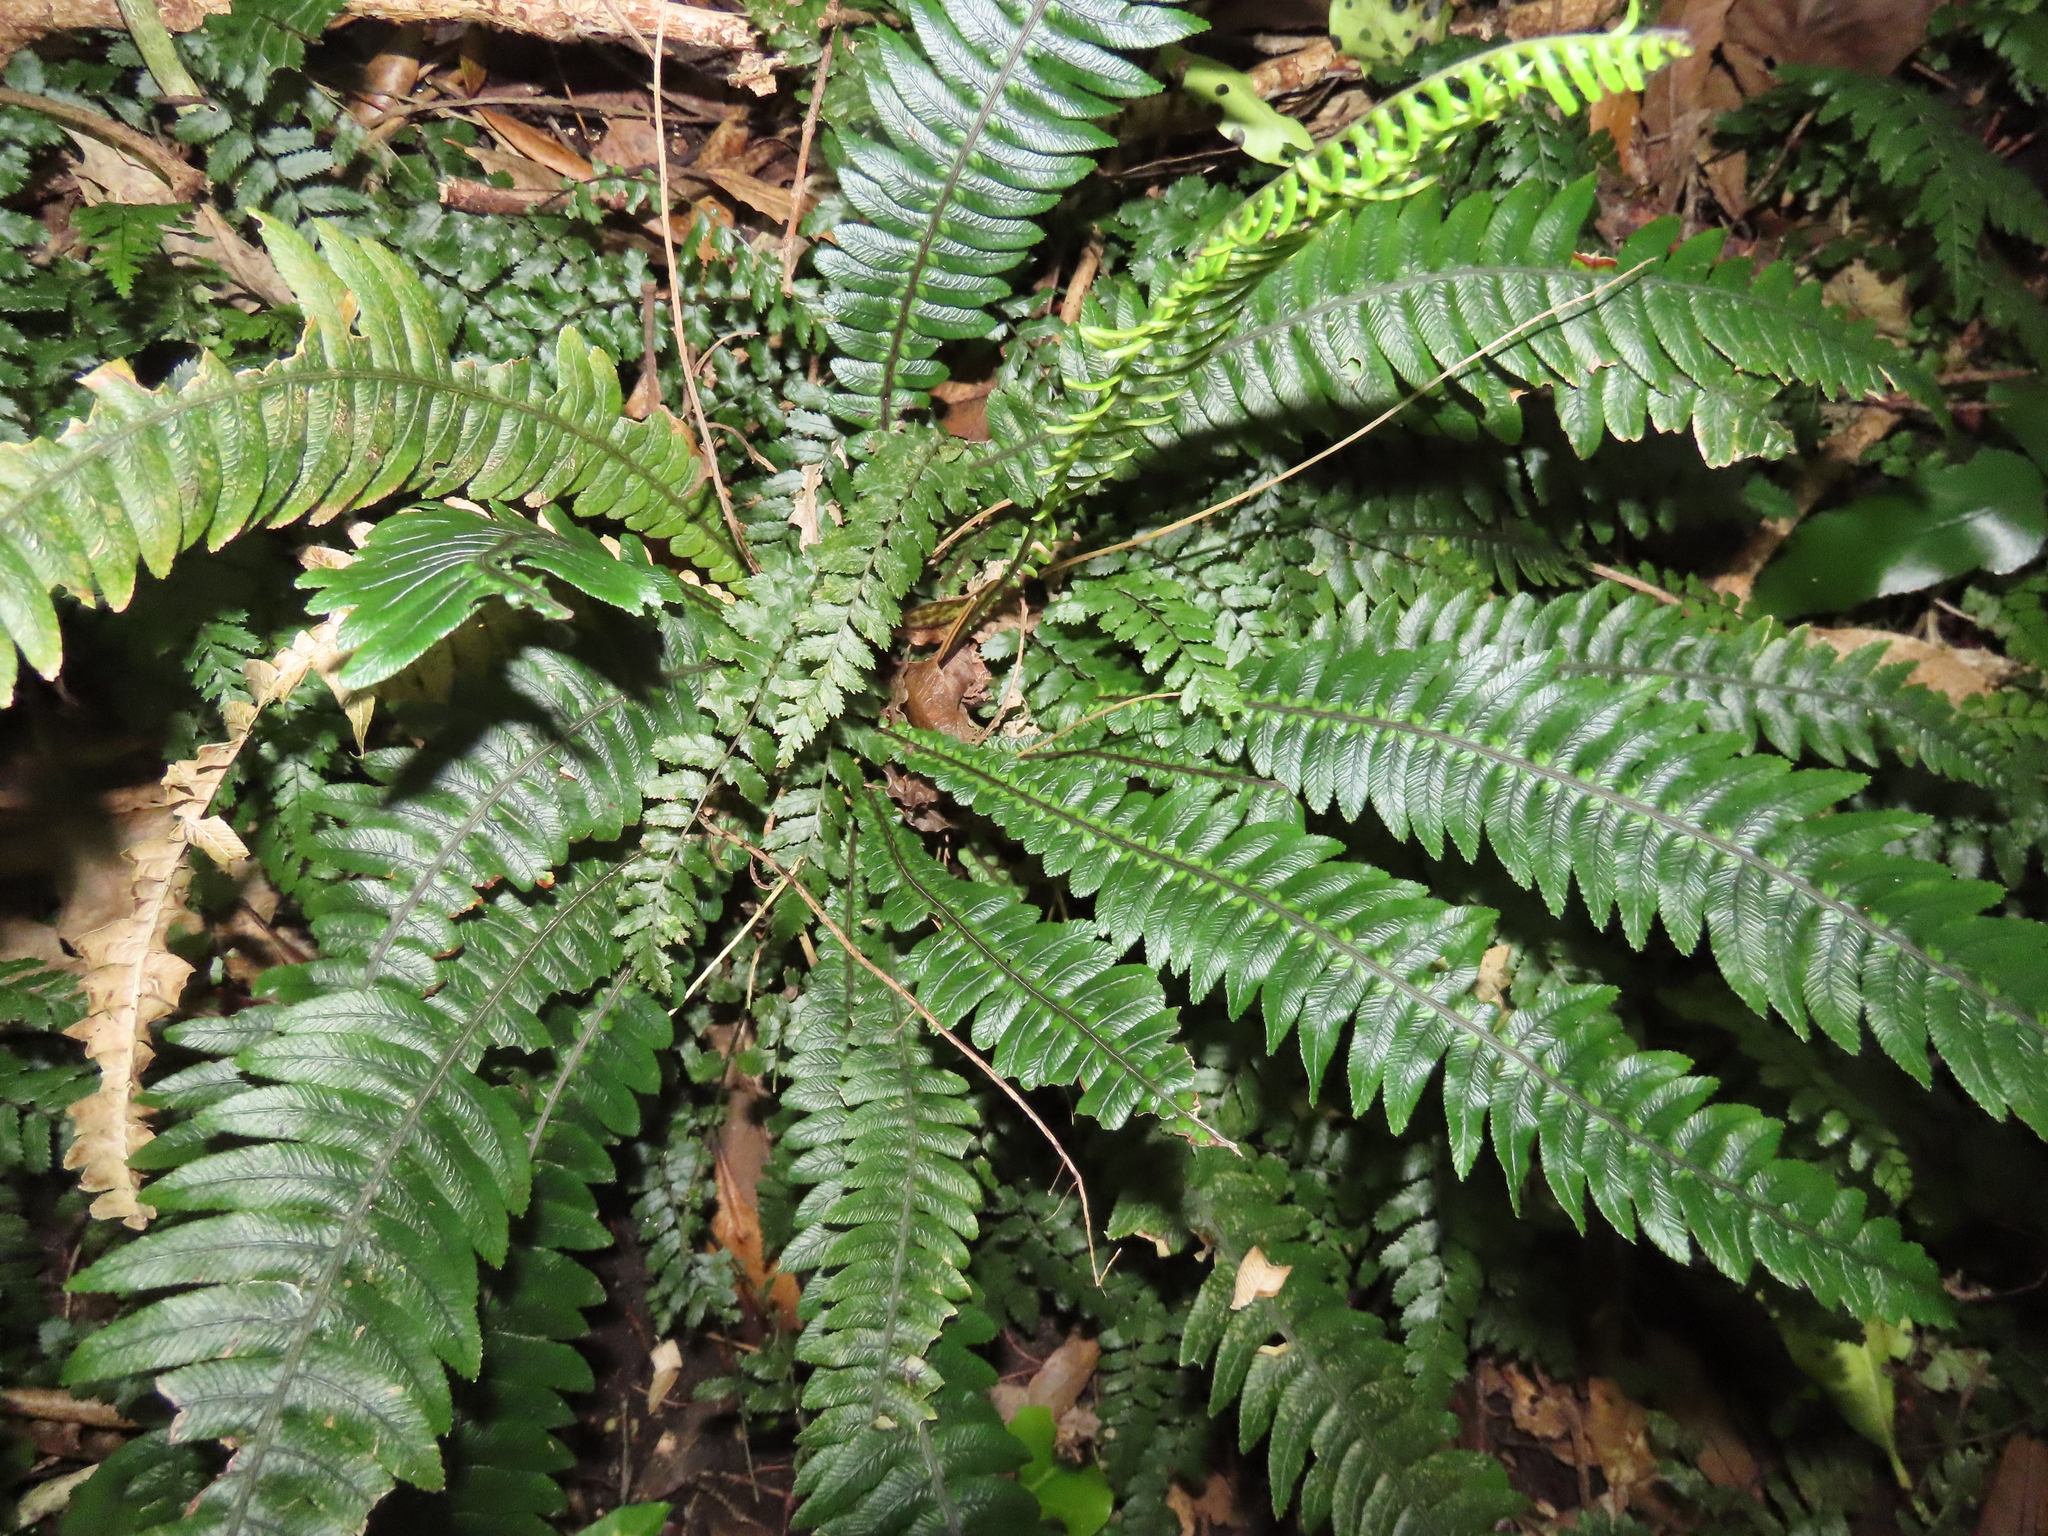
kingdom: Plantae
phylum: Tracheophyta
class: Polypodiopsida
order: Polypodiales
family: Blechnaceae
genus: Austroblechnum
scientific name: Austroblechnum lanceolatum
